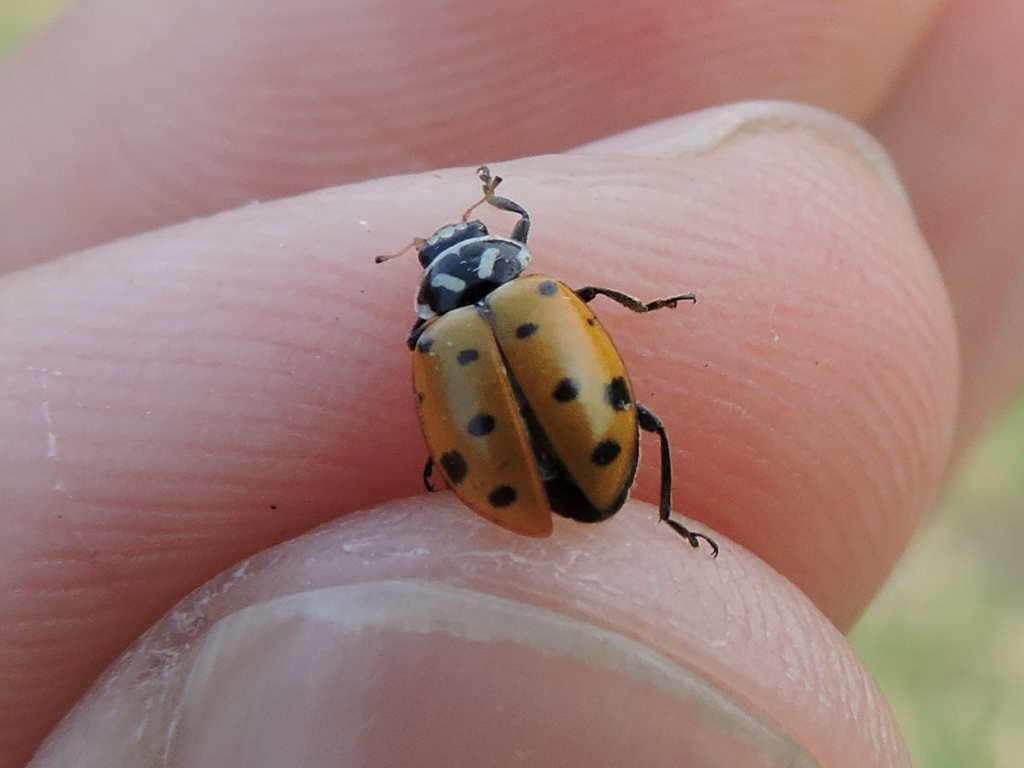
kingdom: Animalia
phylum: Arthropoda
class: Insecta
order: Coleoptera
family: Coccinellidae
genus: Hippodamia
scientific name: Hippodamia convergens
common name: Convergent lady beetle
